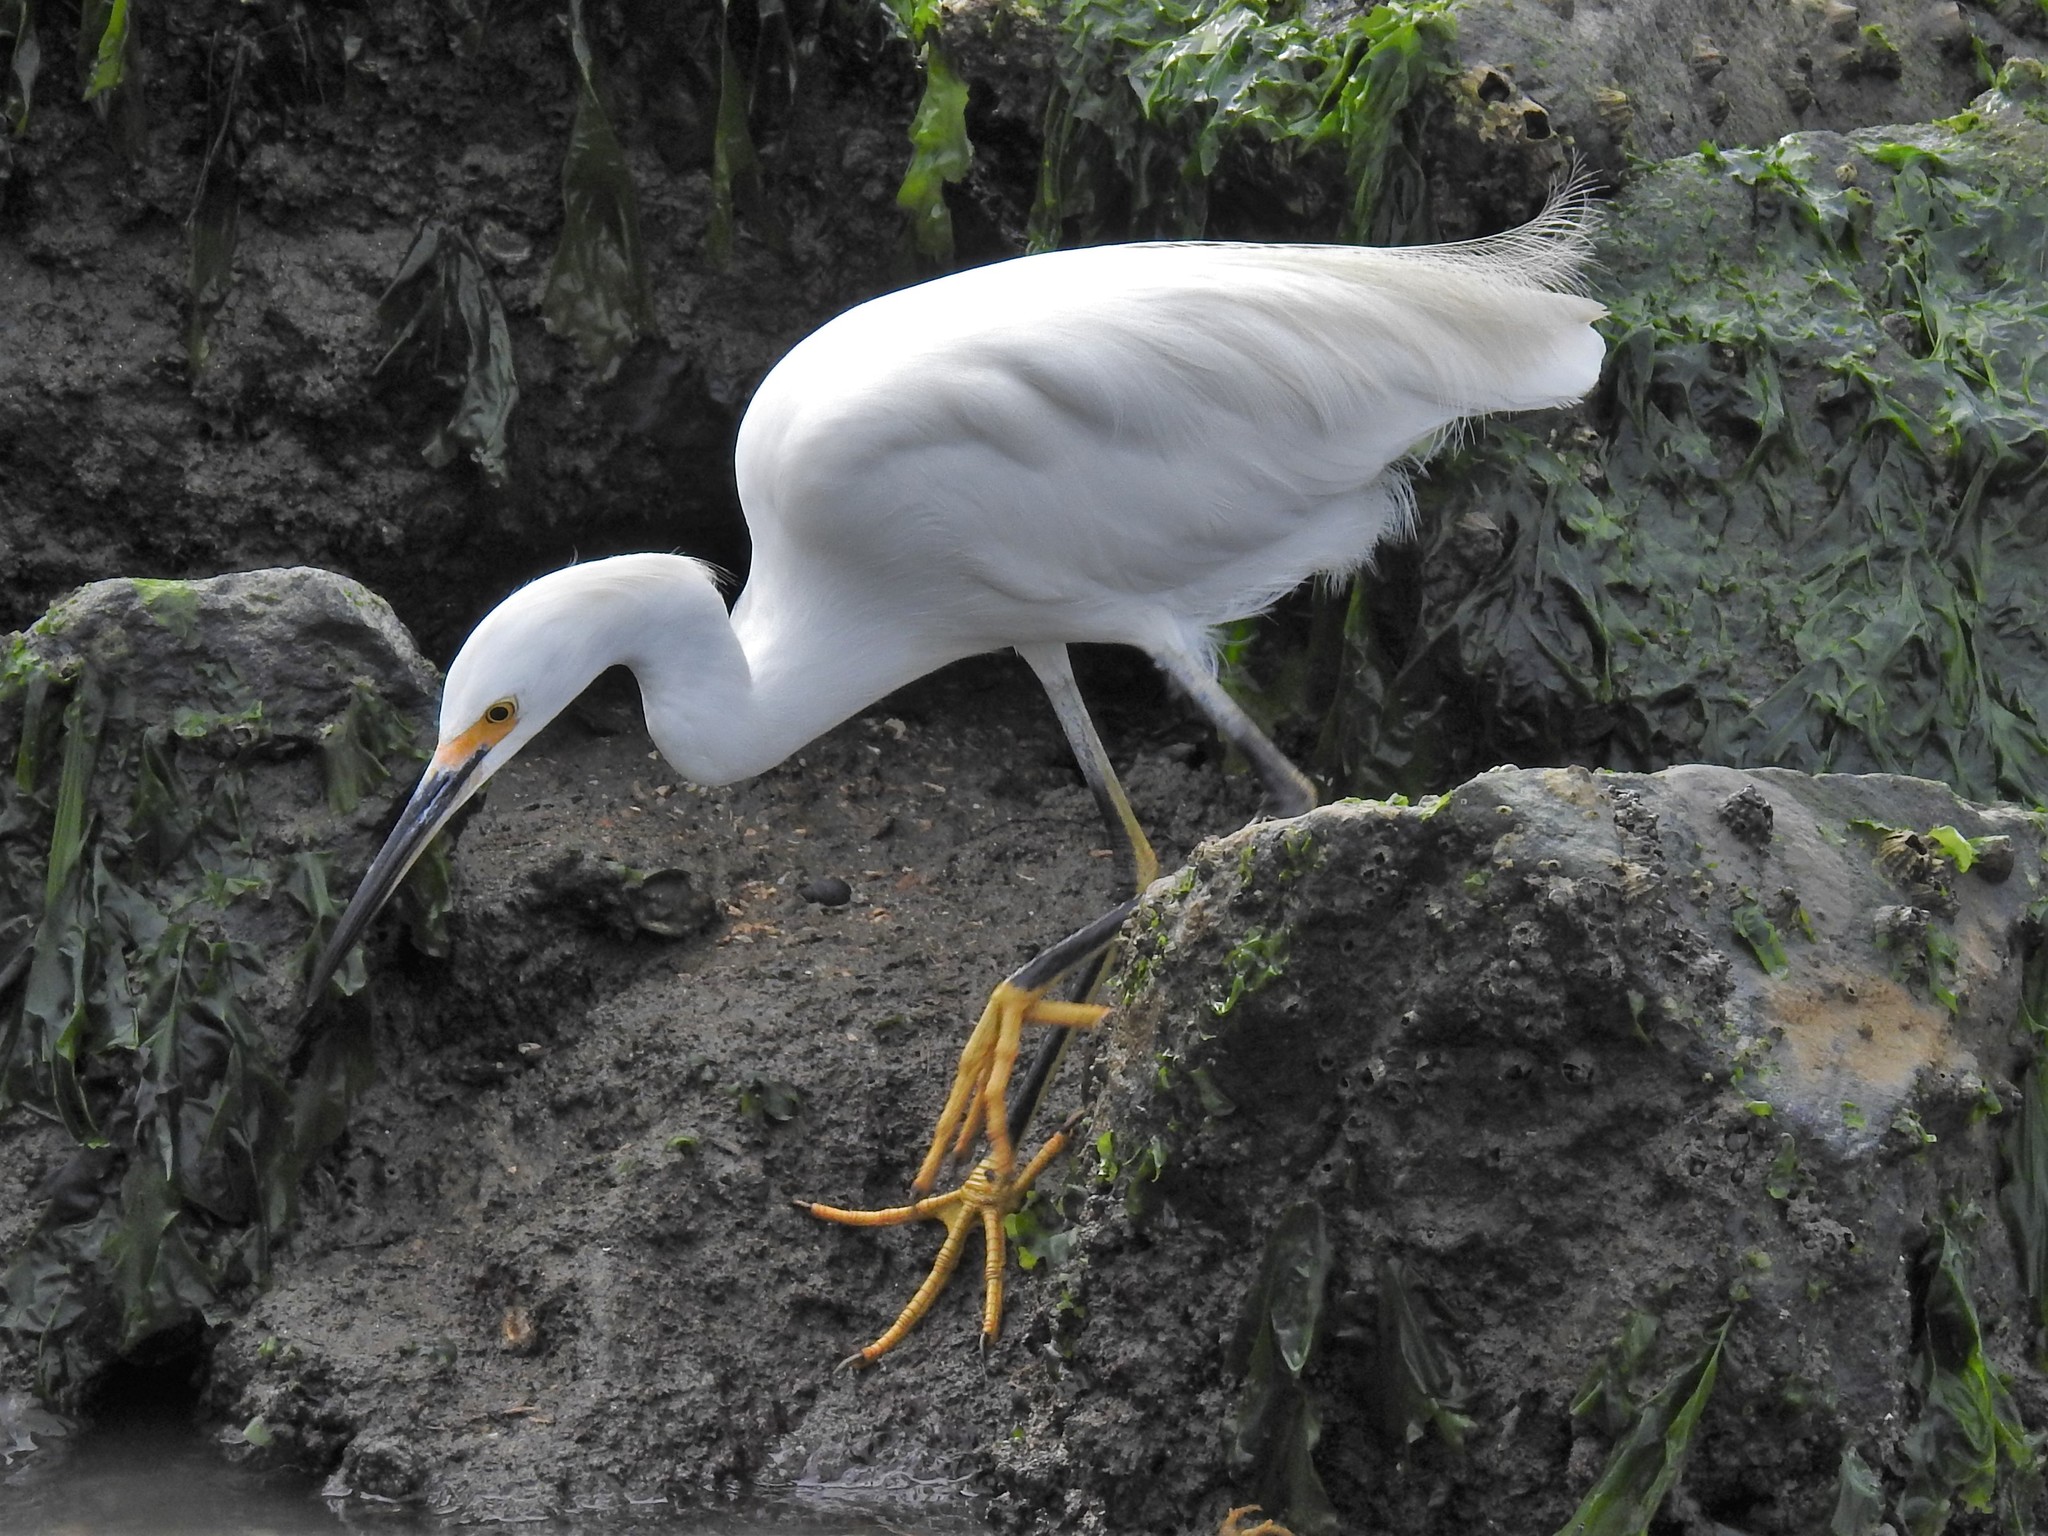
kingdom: Animalia
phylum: Chordata
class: Aves
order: Pelecaniformes
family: Ardeidae
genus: Egretta
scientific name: Egretta thula
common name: Snowy egret
